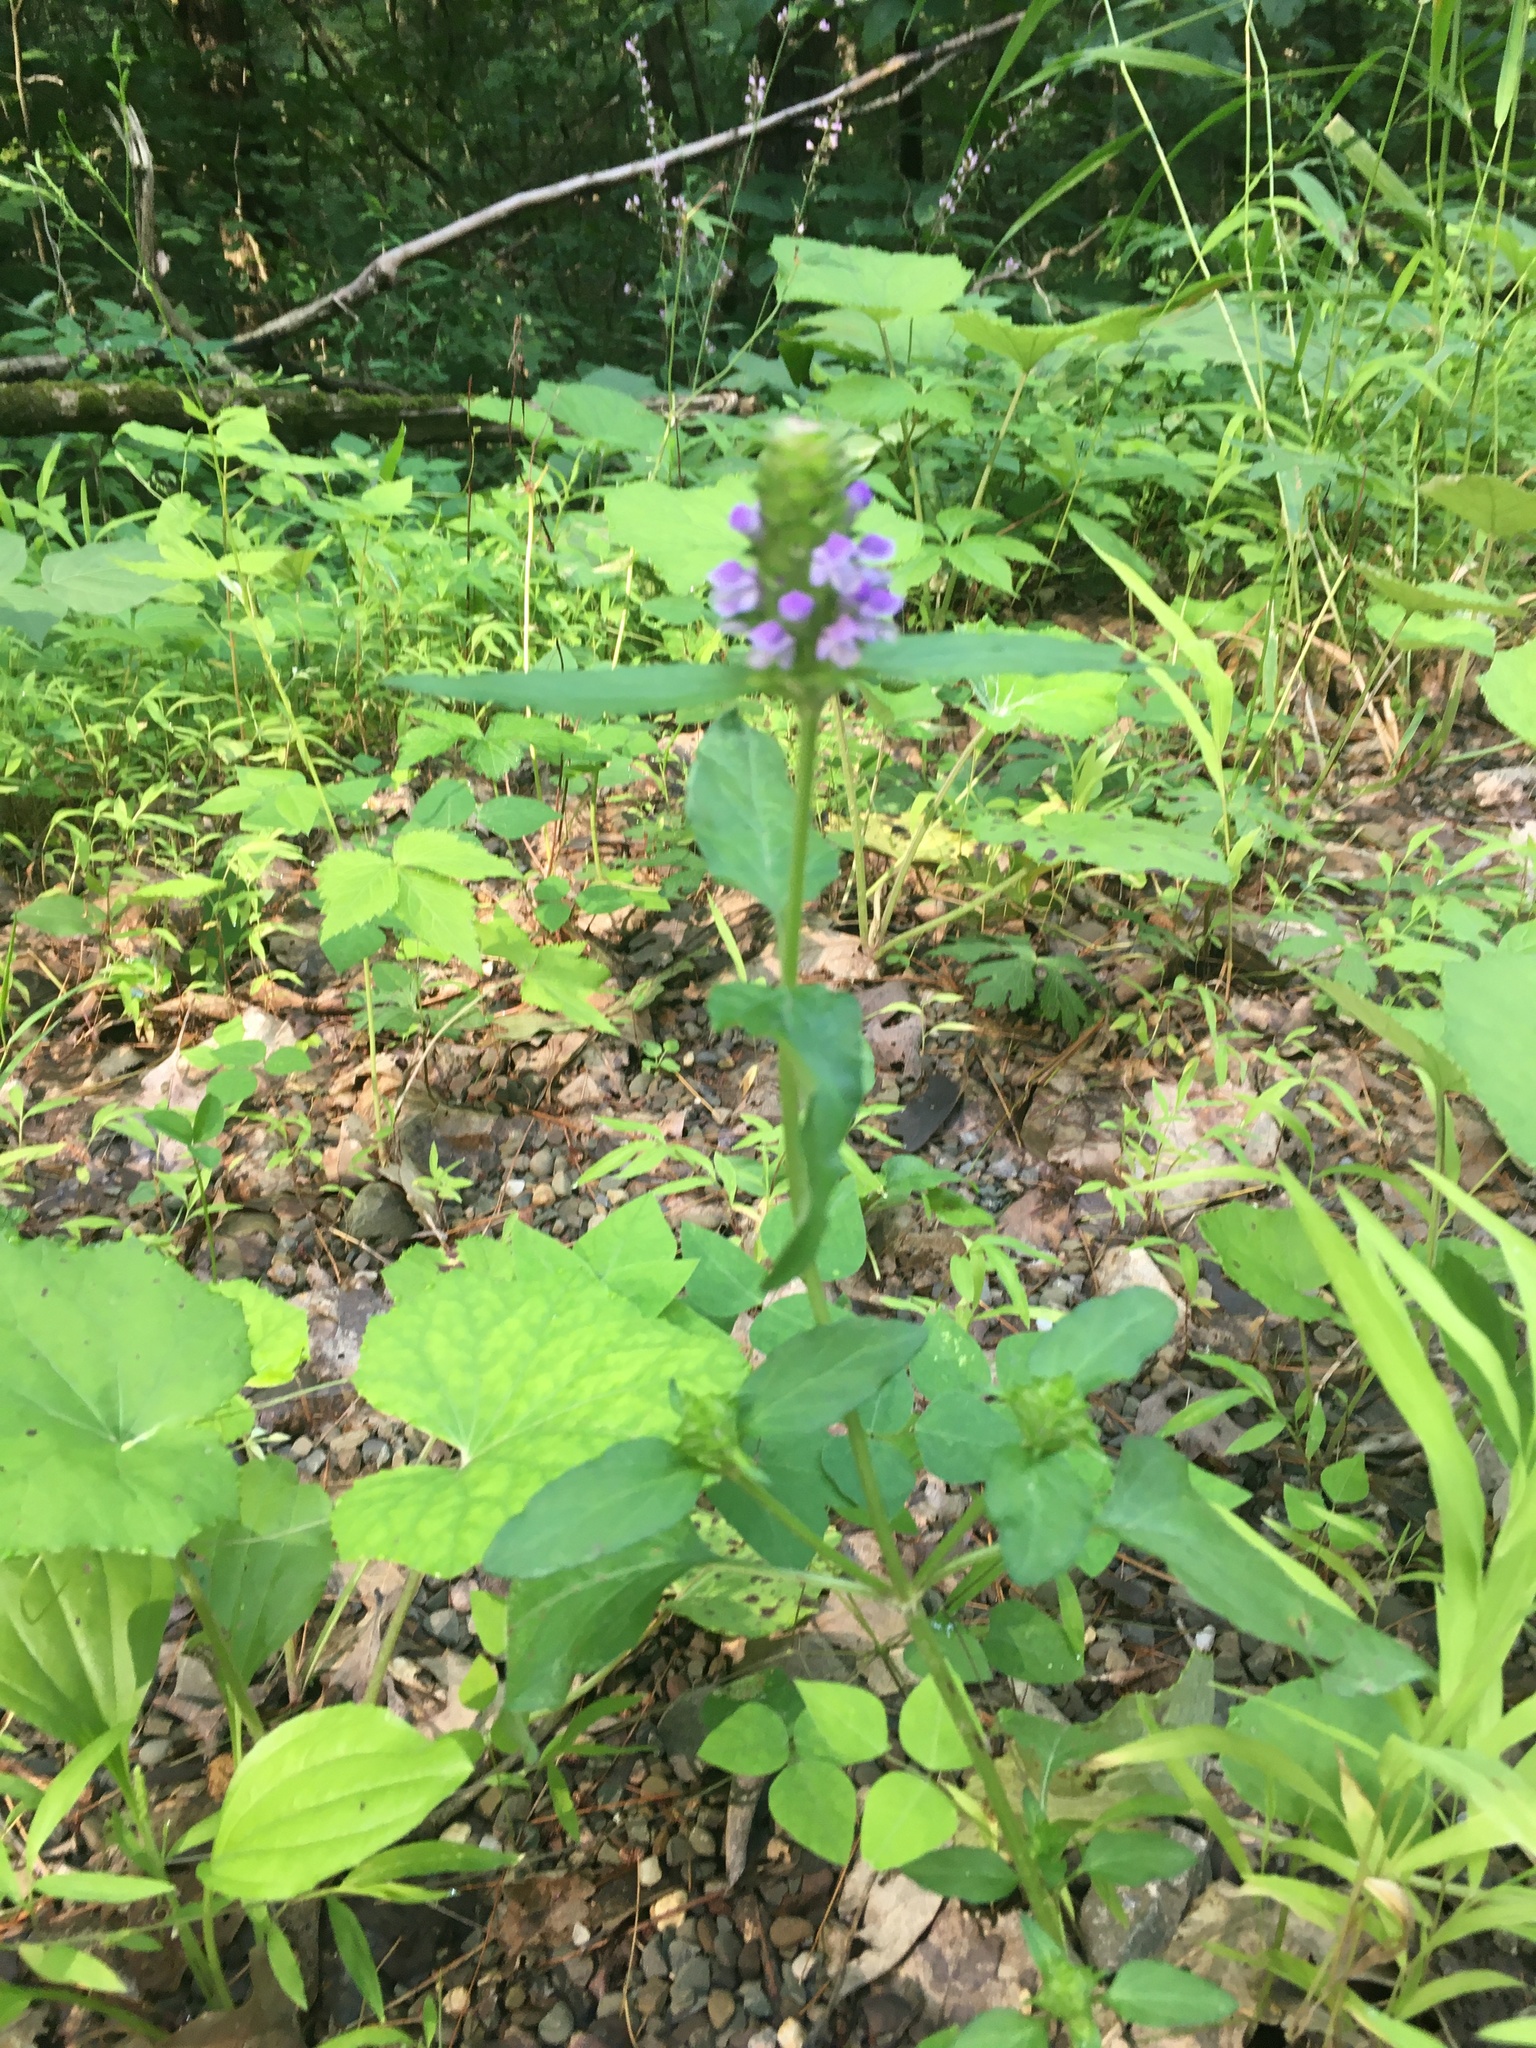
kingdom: Plantae
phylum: Tracheophyta
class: Magnoliopsida
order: Lamiales
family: Lamiaceae
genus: Prunella
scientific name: Prunella vulgaris
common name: Heal-all
